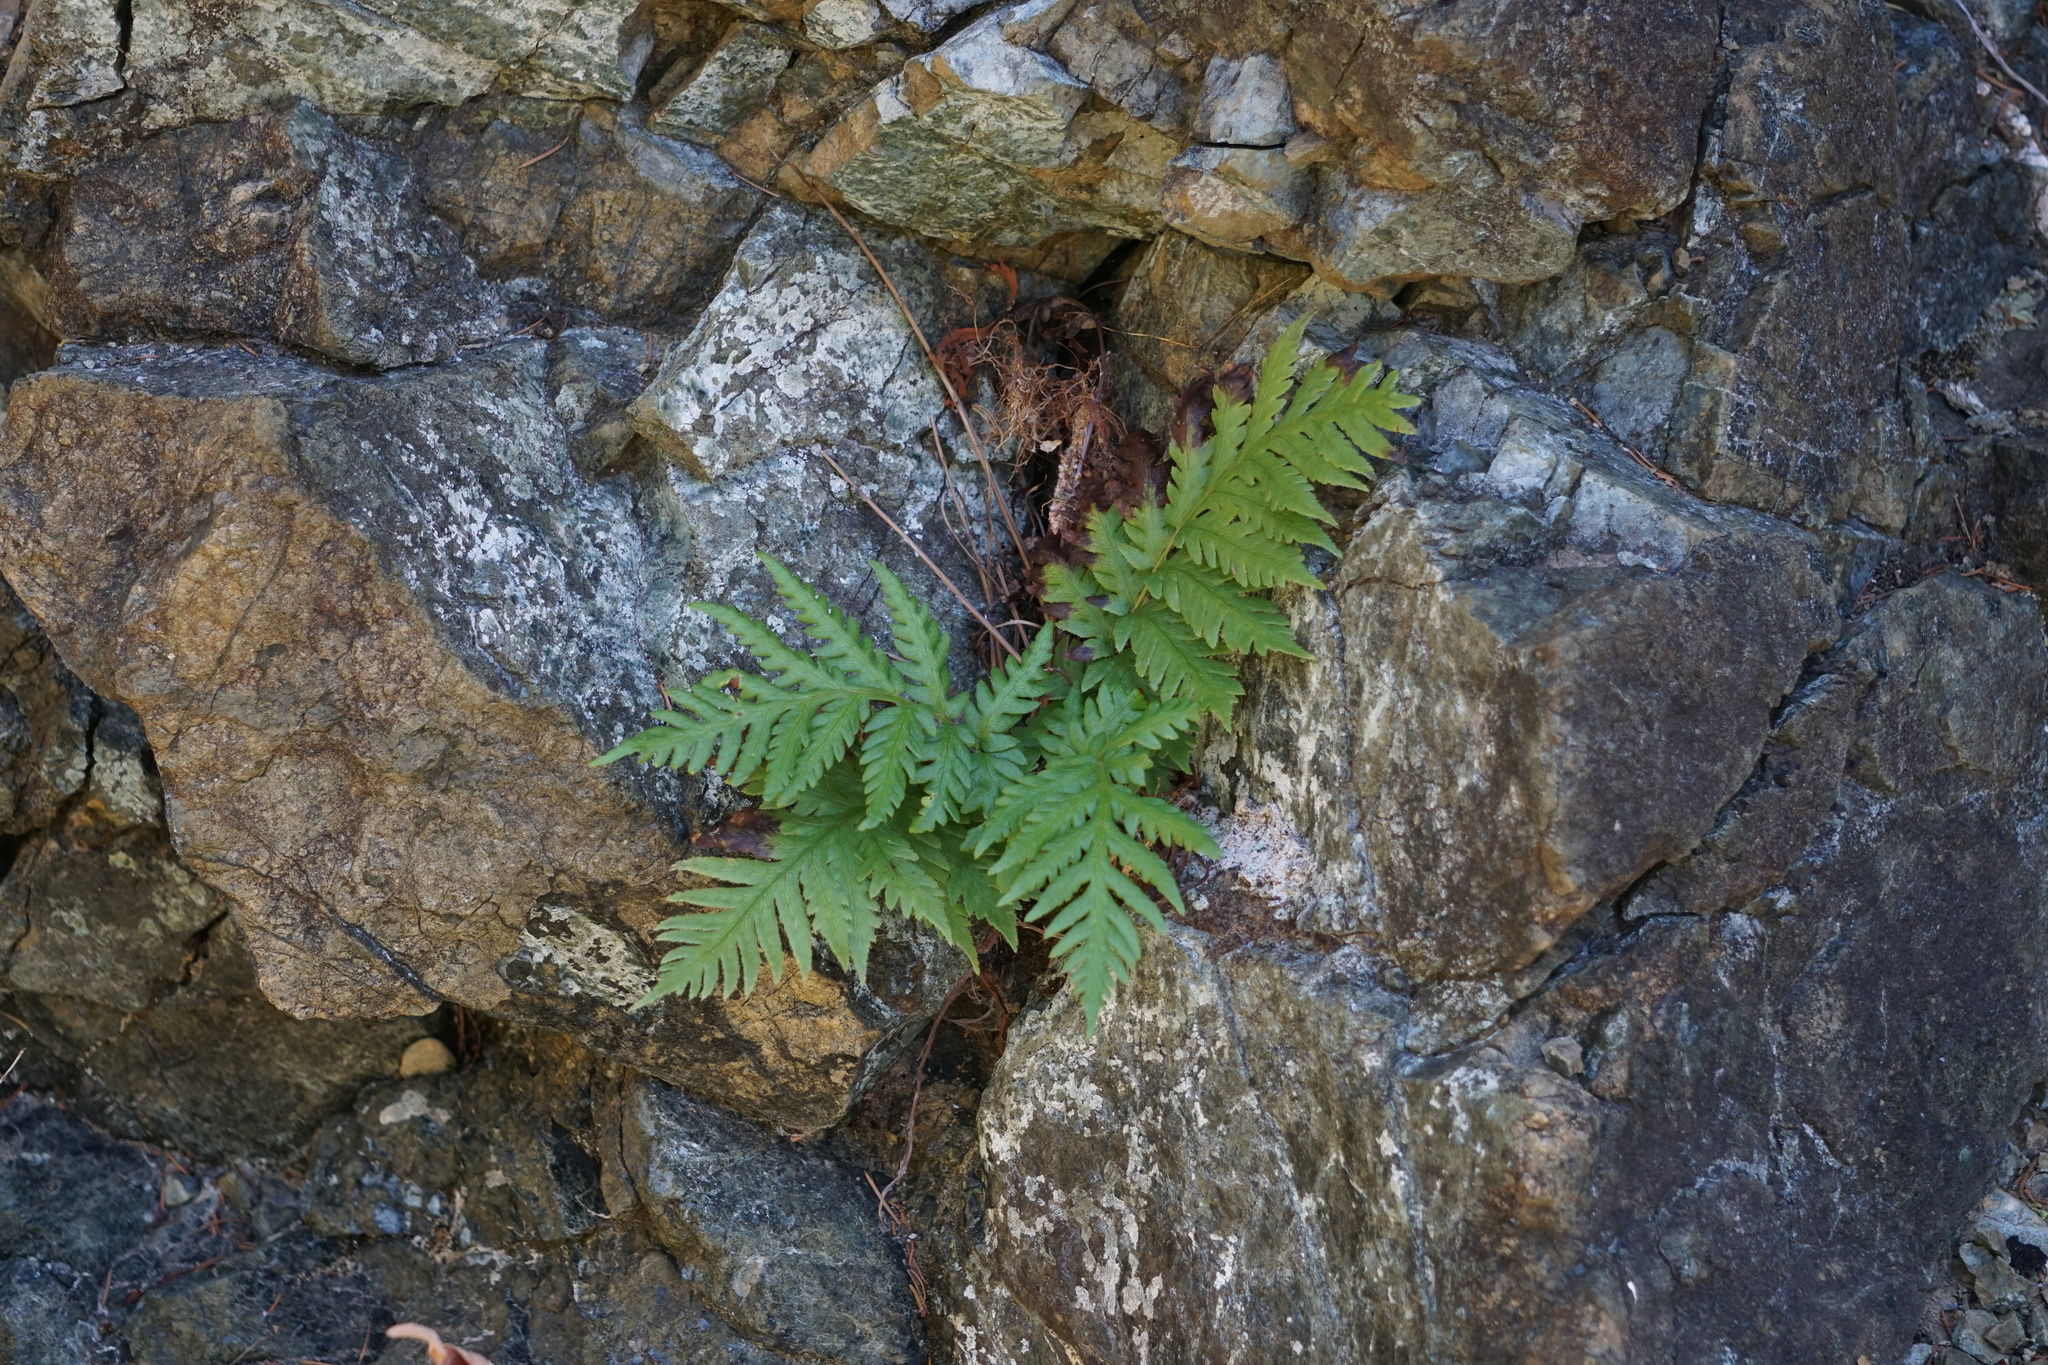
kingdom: Plantae
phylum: Tracheophyta
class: Polypodiopsida
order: Polypodiales
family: Blechnaceae
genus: Woodwardia
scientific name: Woodwardia fimbriata
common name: Giant chain fern
